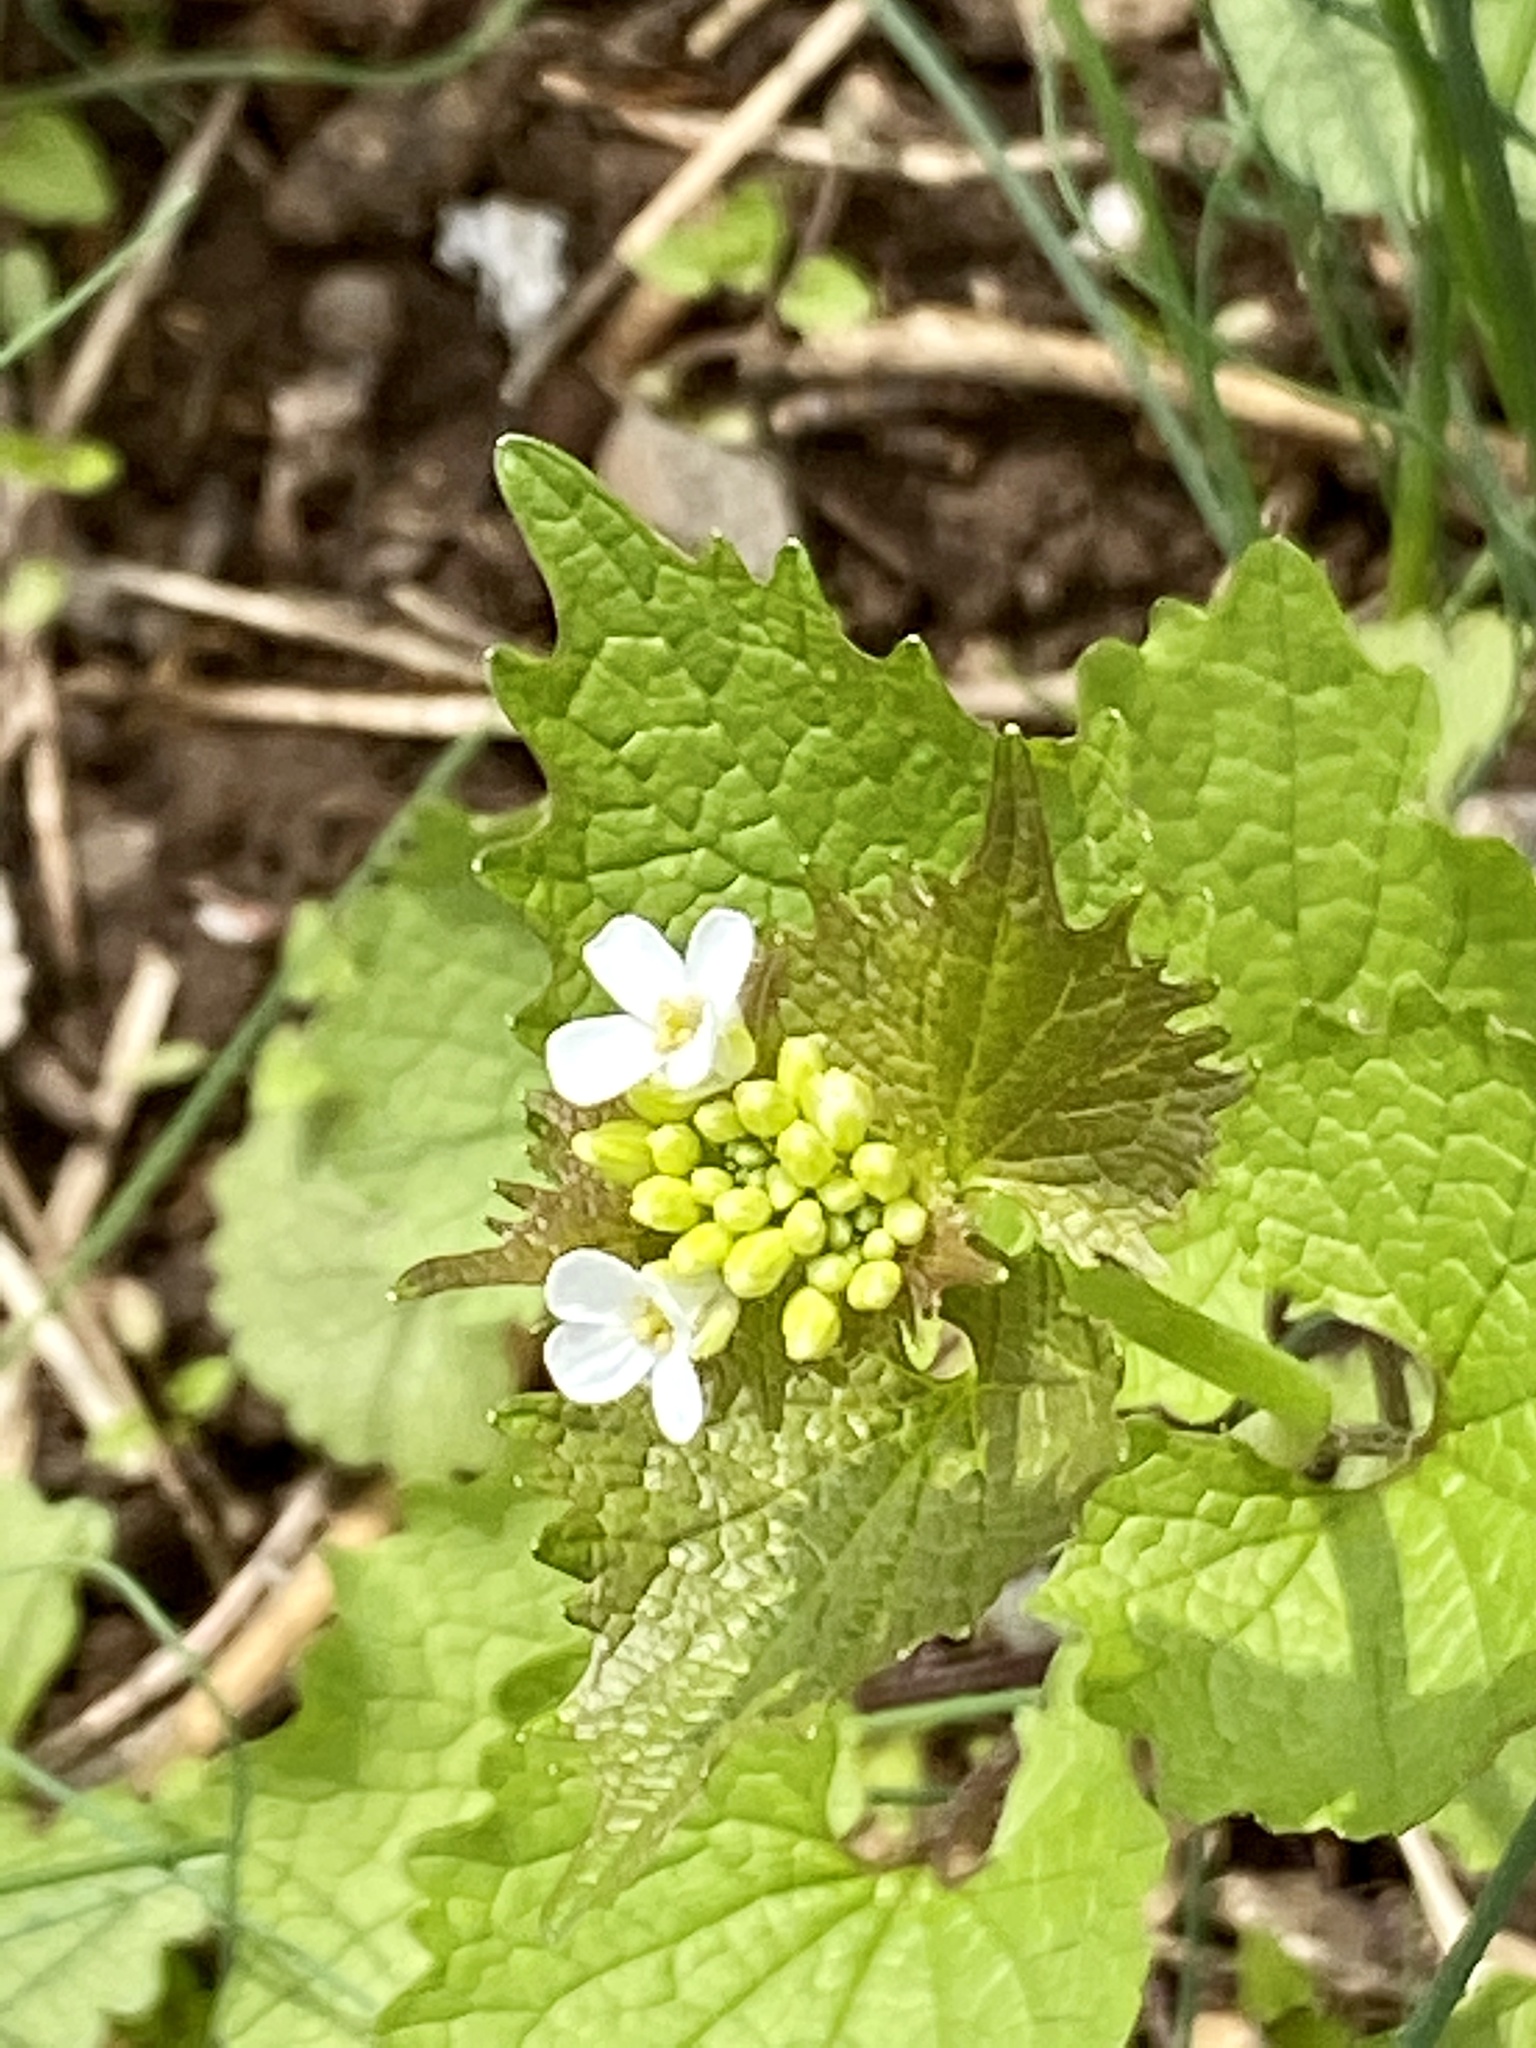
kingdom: Plantae
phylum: Tracheophyta
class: Magnoliopsida
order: Brassicales
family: Brassicaceae
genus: Alliaria
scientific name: Alliaria petiolata
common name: Garlic mustard
